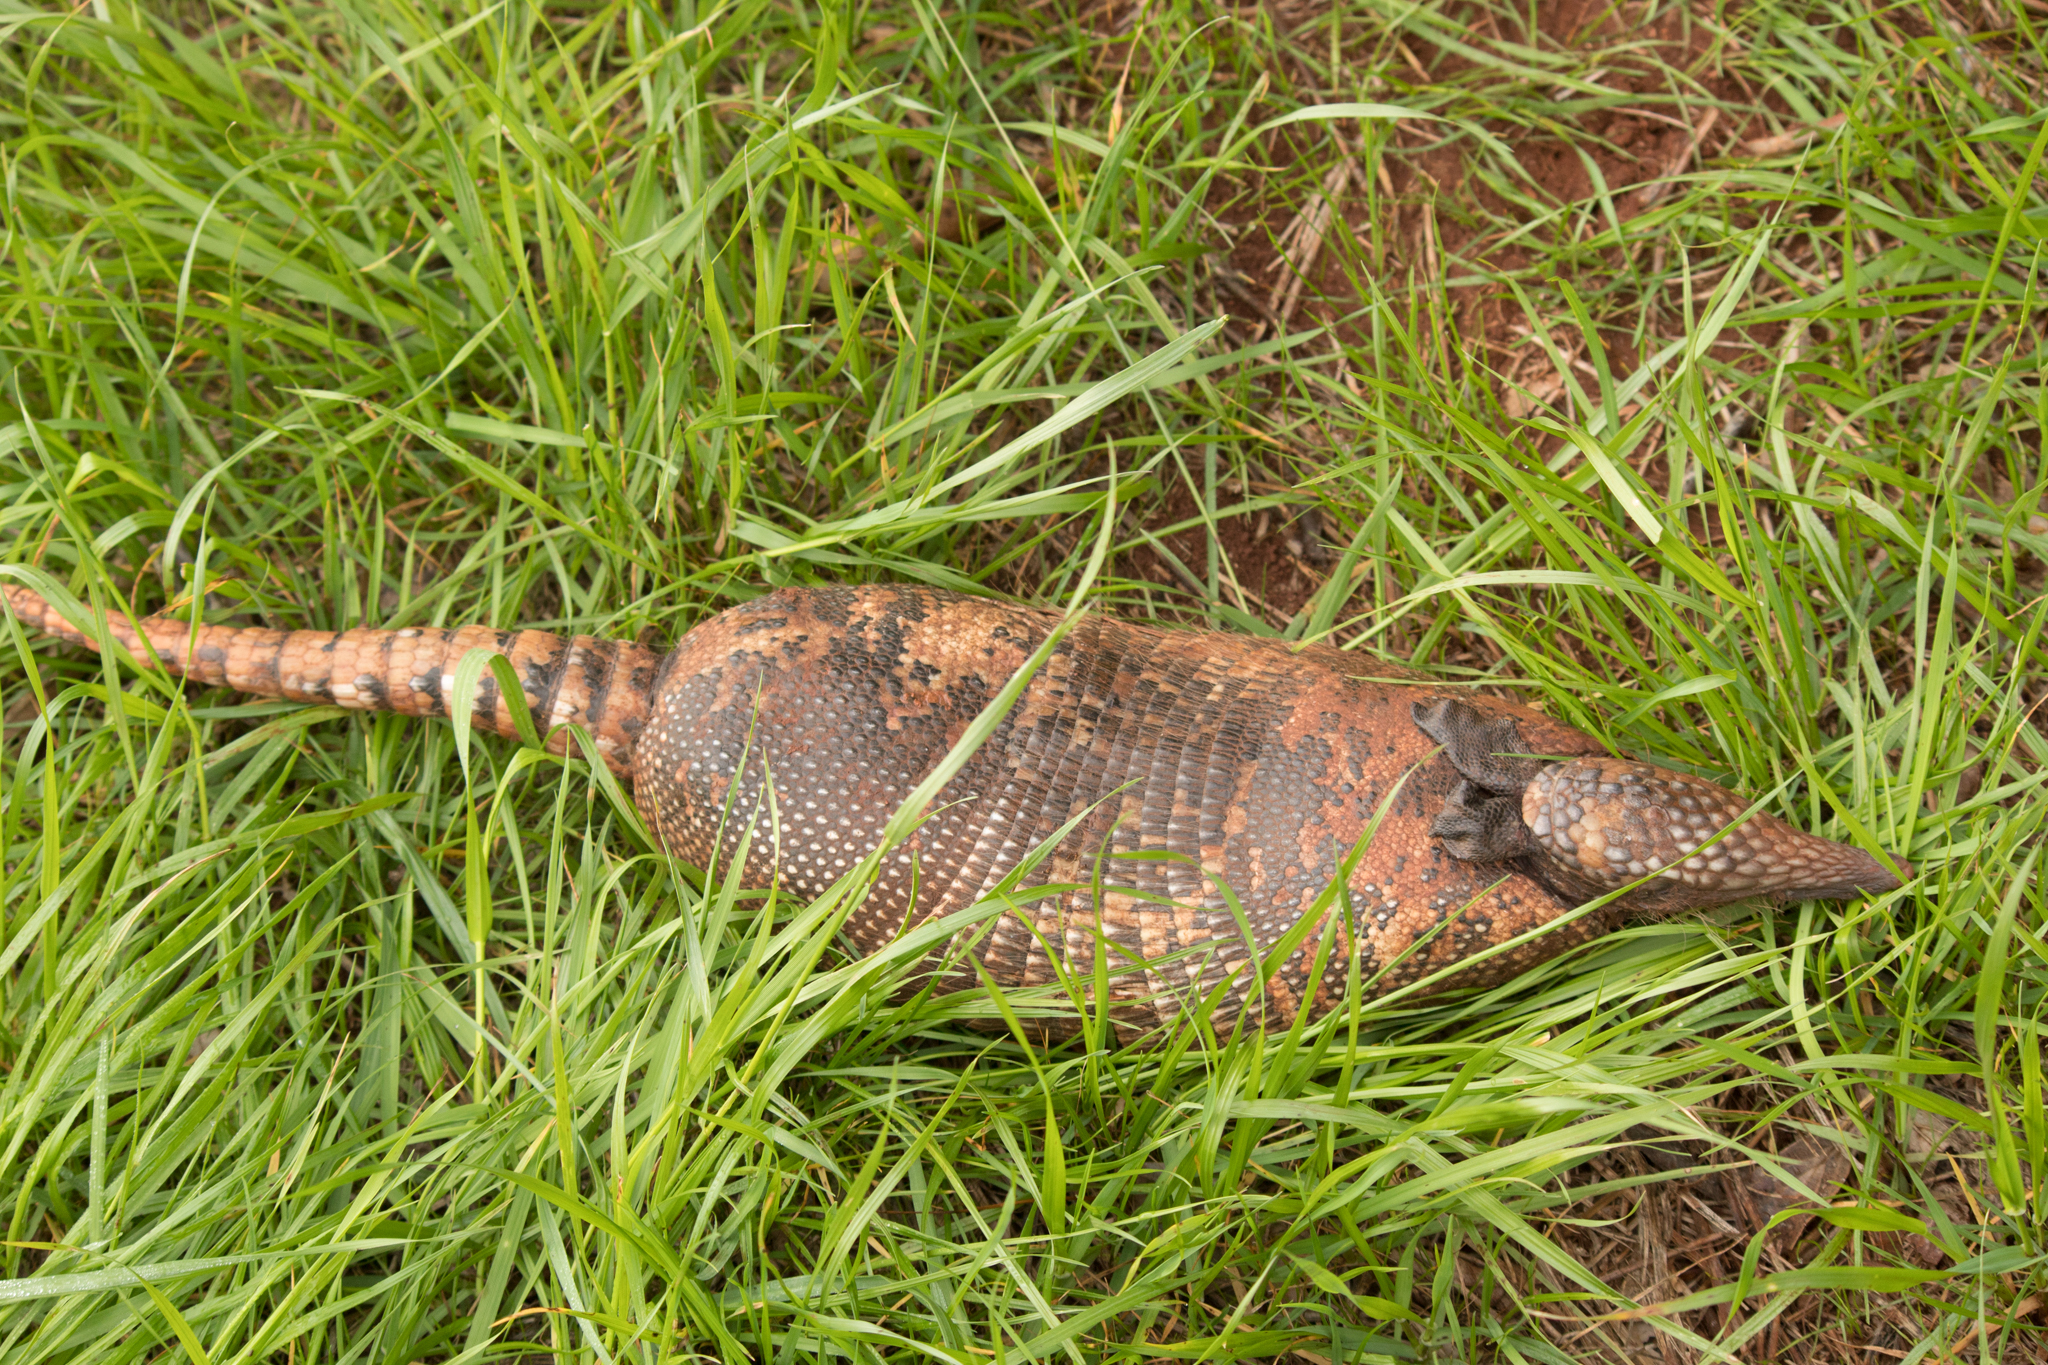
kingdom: Animalia
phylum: Chordata
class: Mammalia
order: Cingulata
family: Dasypodidae
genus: Dasypus
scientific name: Dasypus novemcinctus
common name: Nine-banded armadillo
